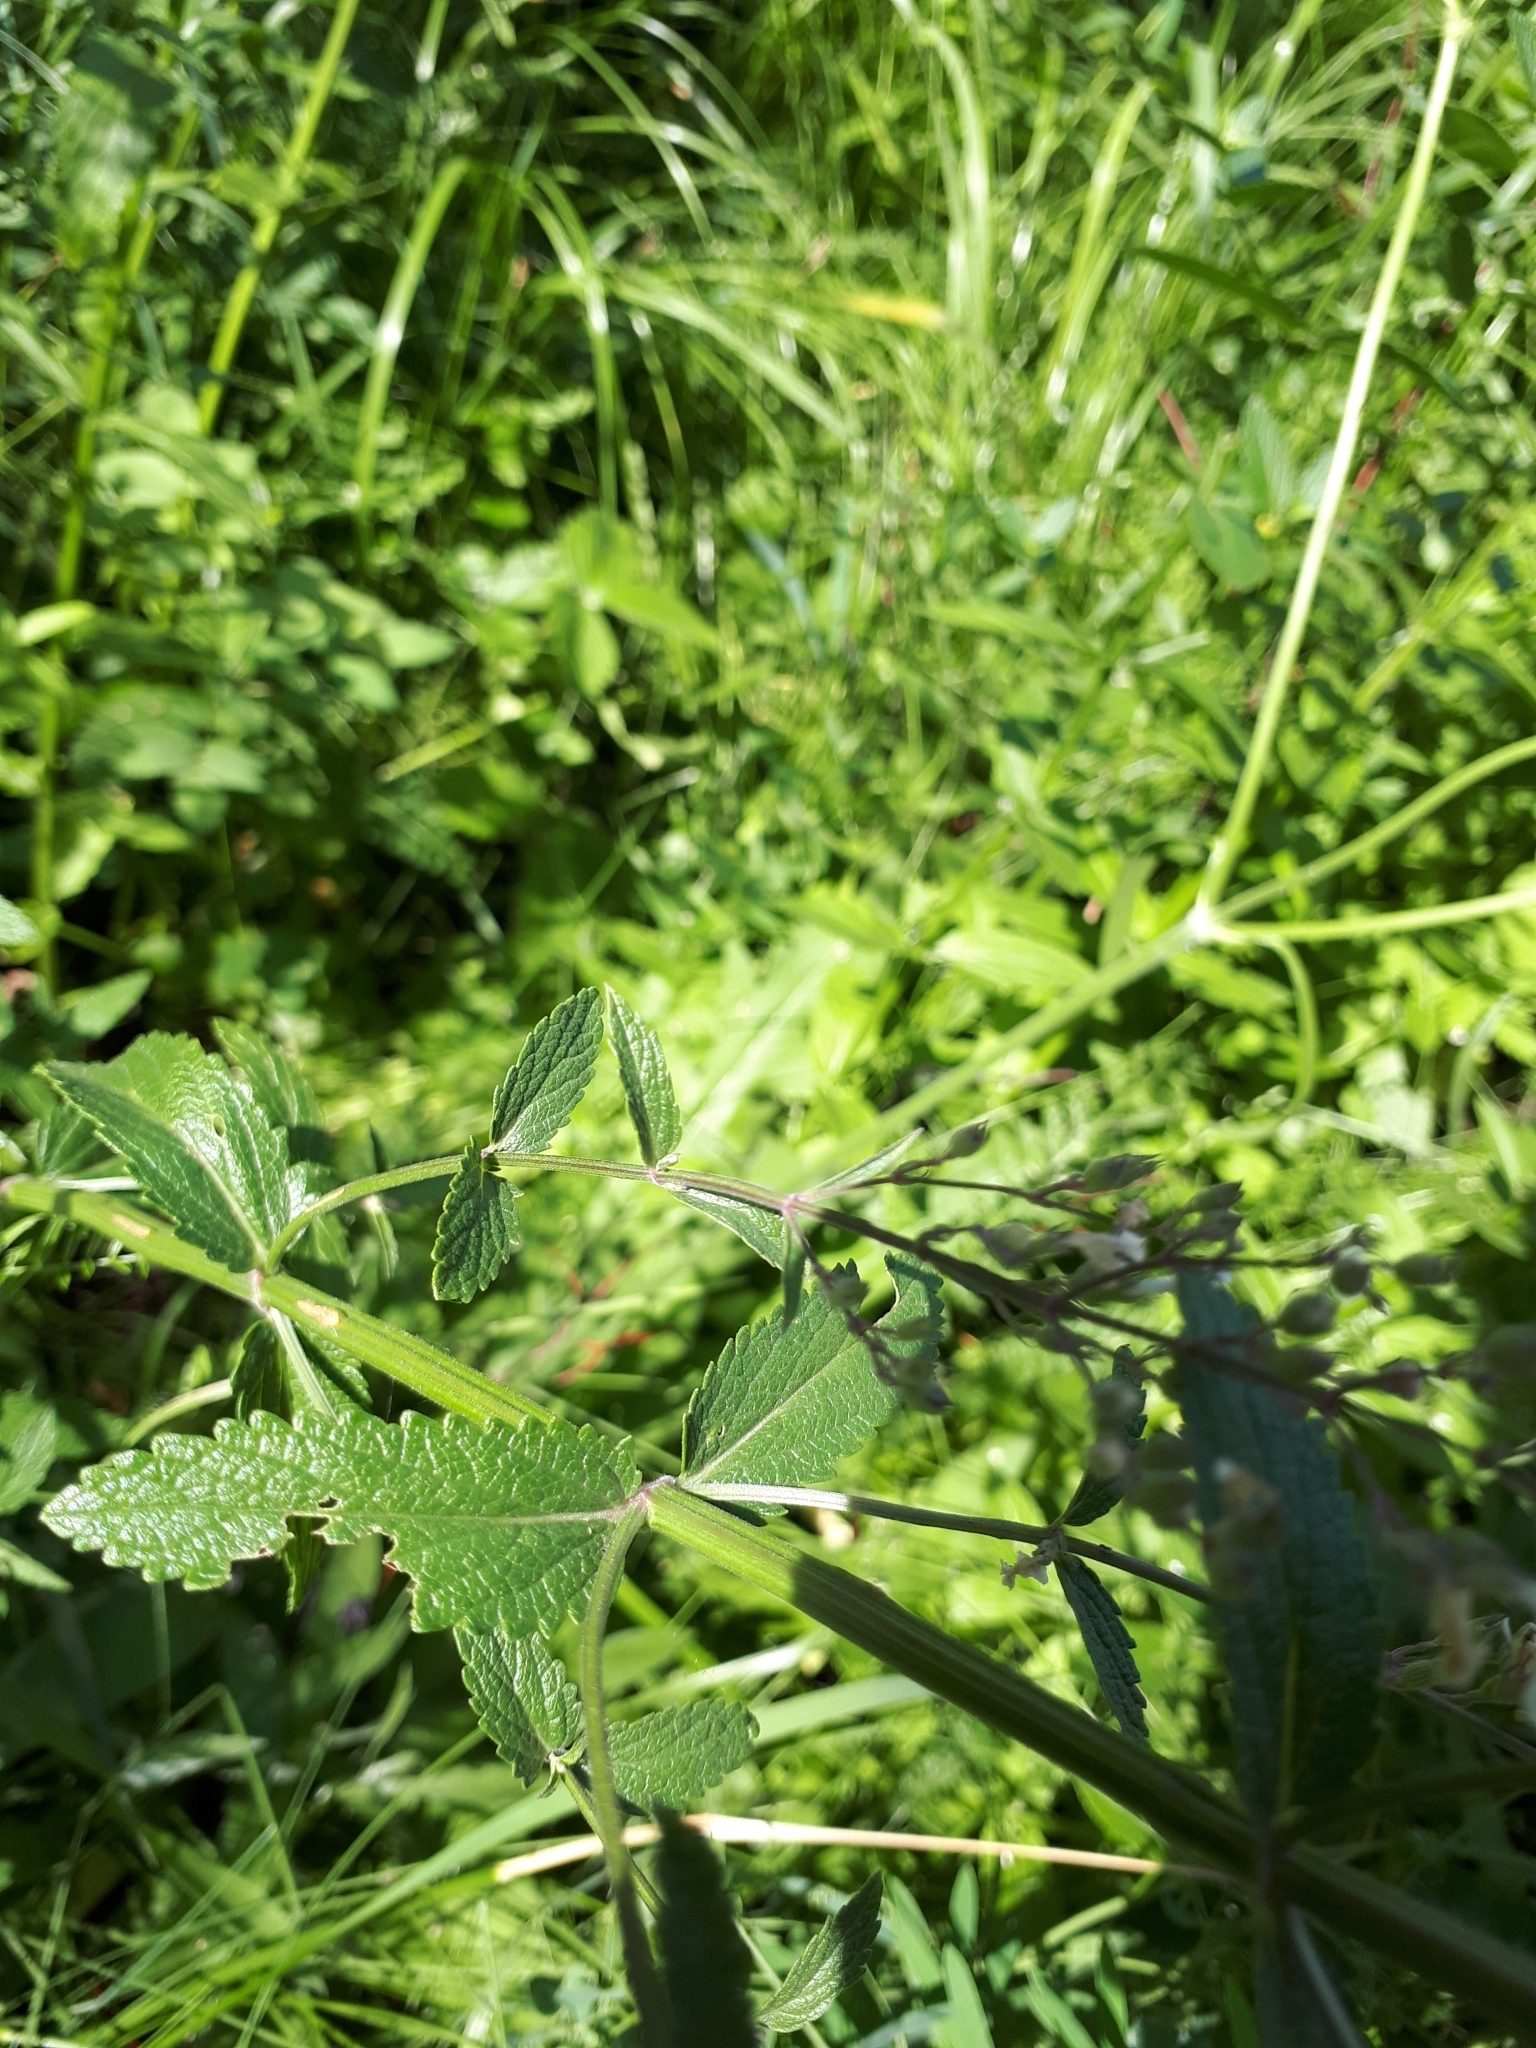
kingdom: Plantae
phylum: Tracheophyta
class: Magnoliopsida
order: Lamiales
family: Lamiaceae
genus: Nepeta
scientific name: Nepeta nuda
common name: Hairless catmint
